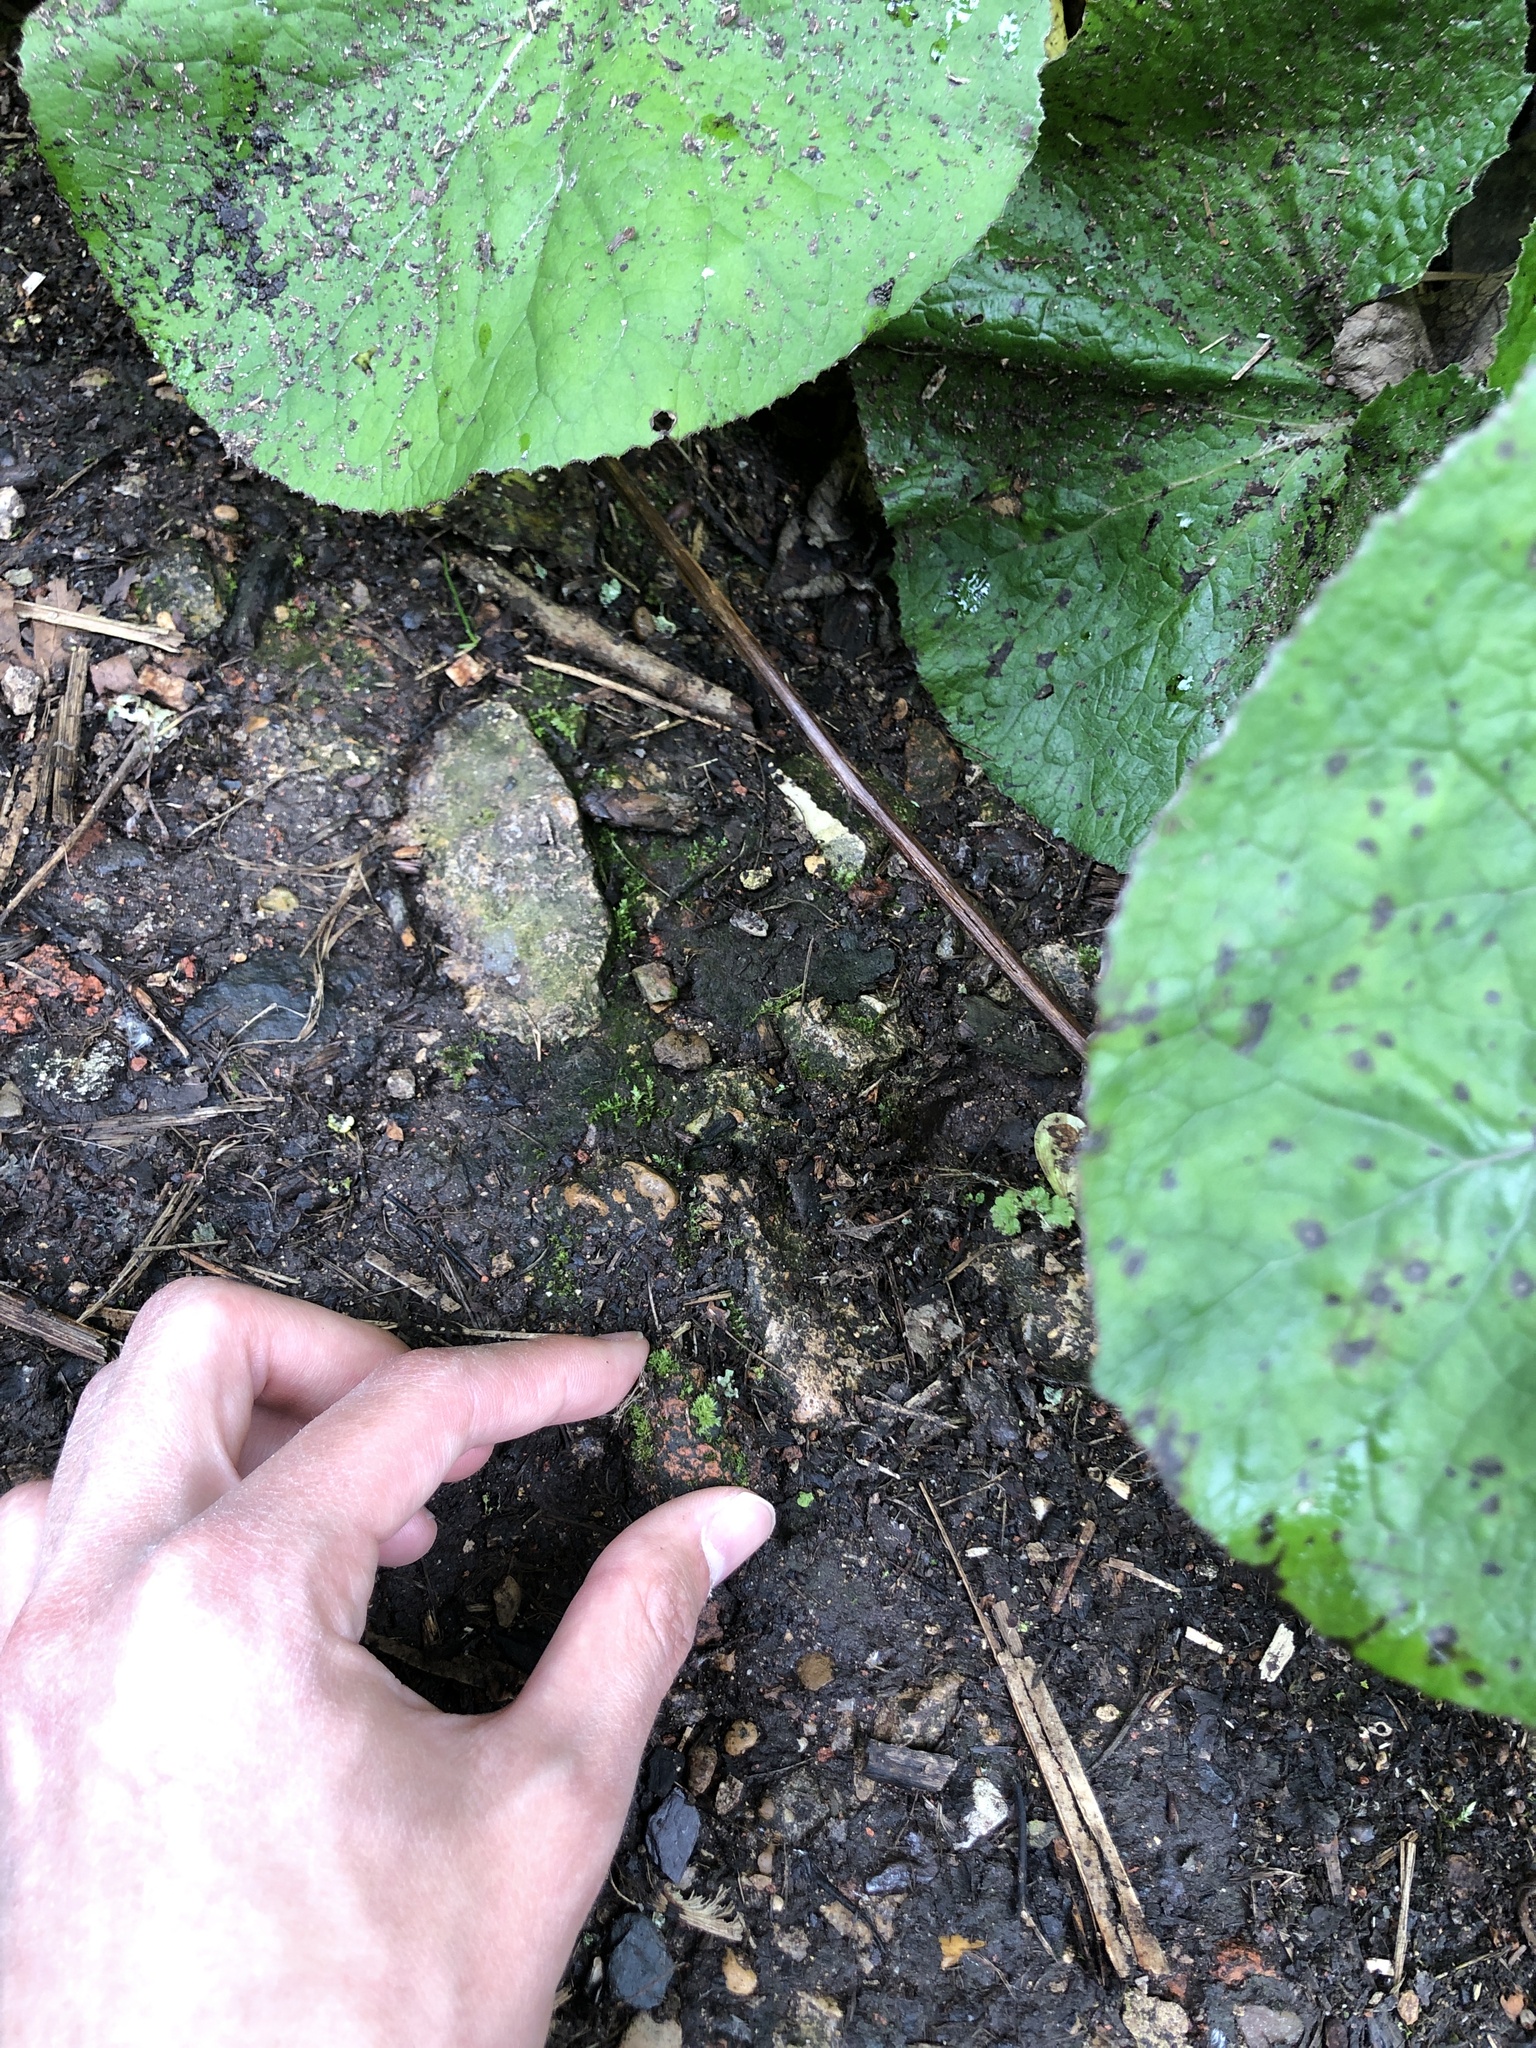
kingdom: Plantae
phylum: Bryophyta
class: Bryopsida
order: Bryales
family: Mniaceae
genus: Pohlia
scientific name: Pohlia melanodon
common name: Black-toothed nodding moss
